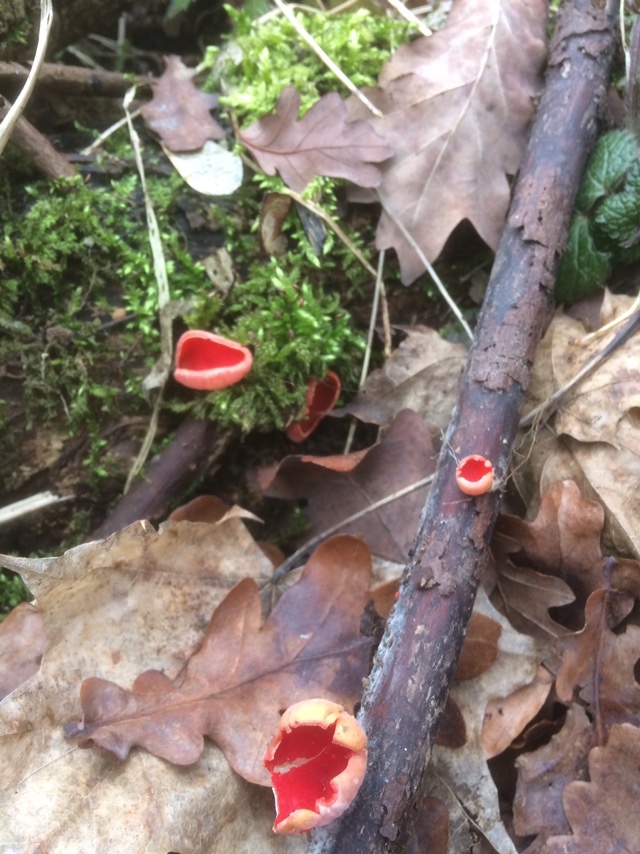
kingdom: Fungi
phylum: Ascomycota
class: Pezizomycetes
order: Pezizales
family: Sarcoscyphaceae
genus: Sarcoscypha
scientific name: Sarcoscypha
